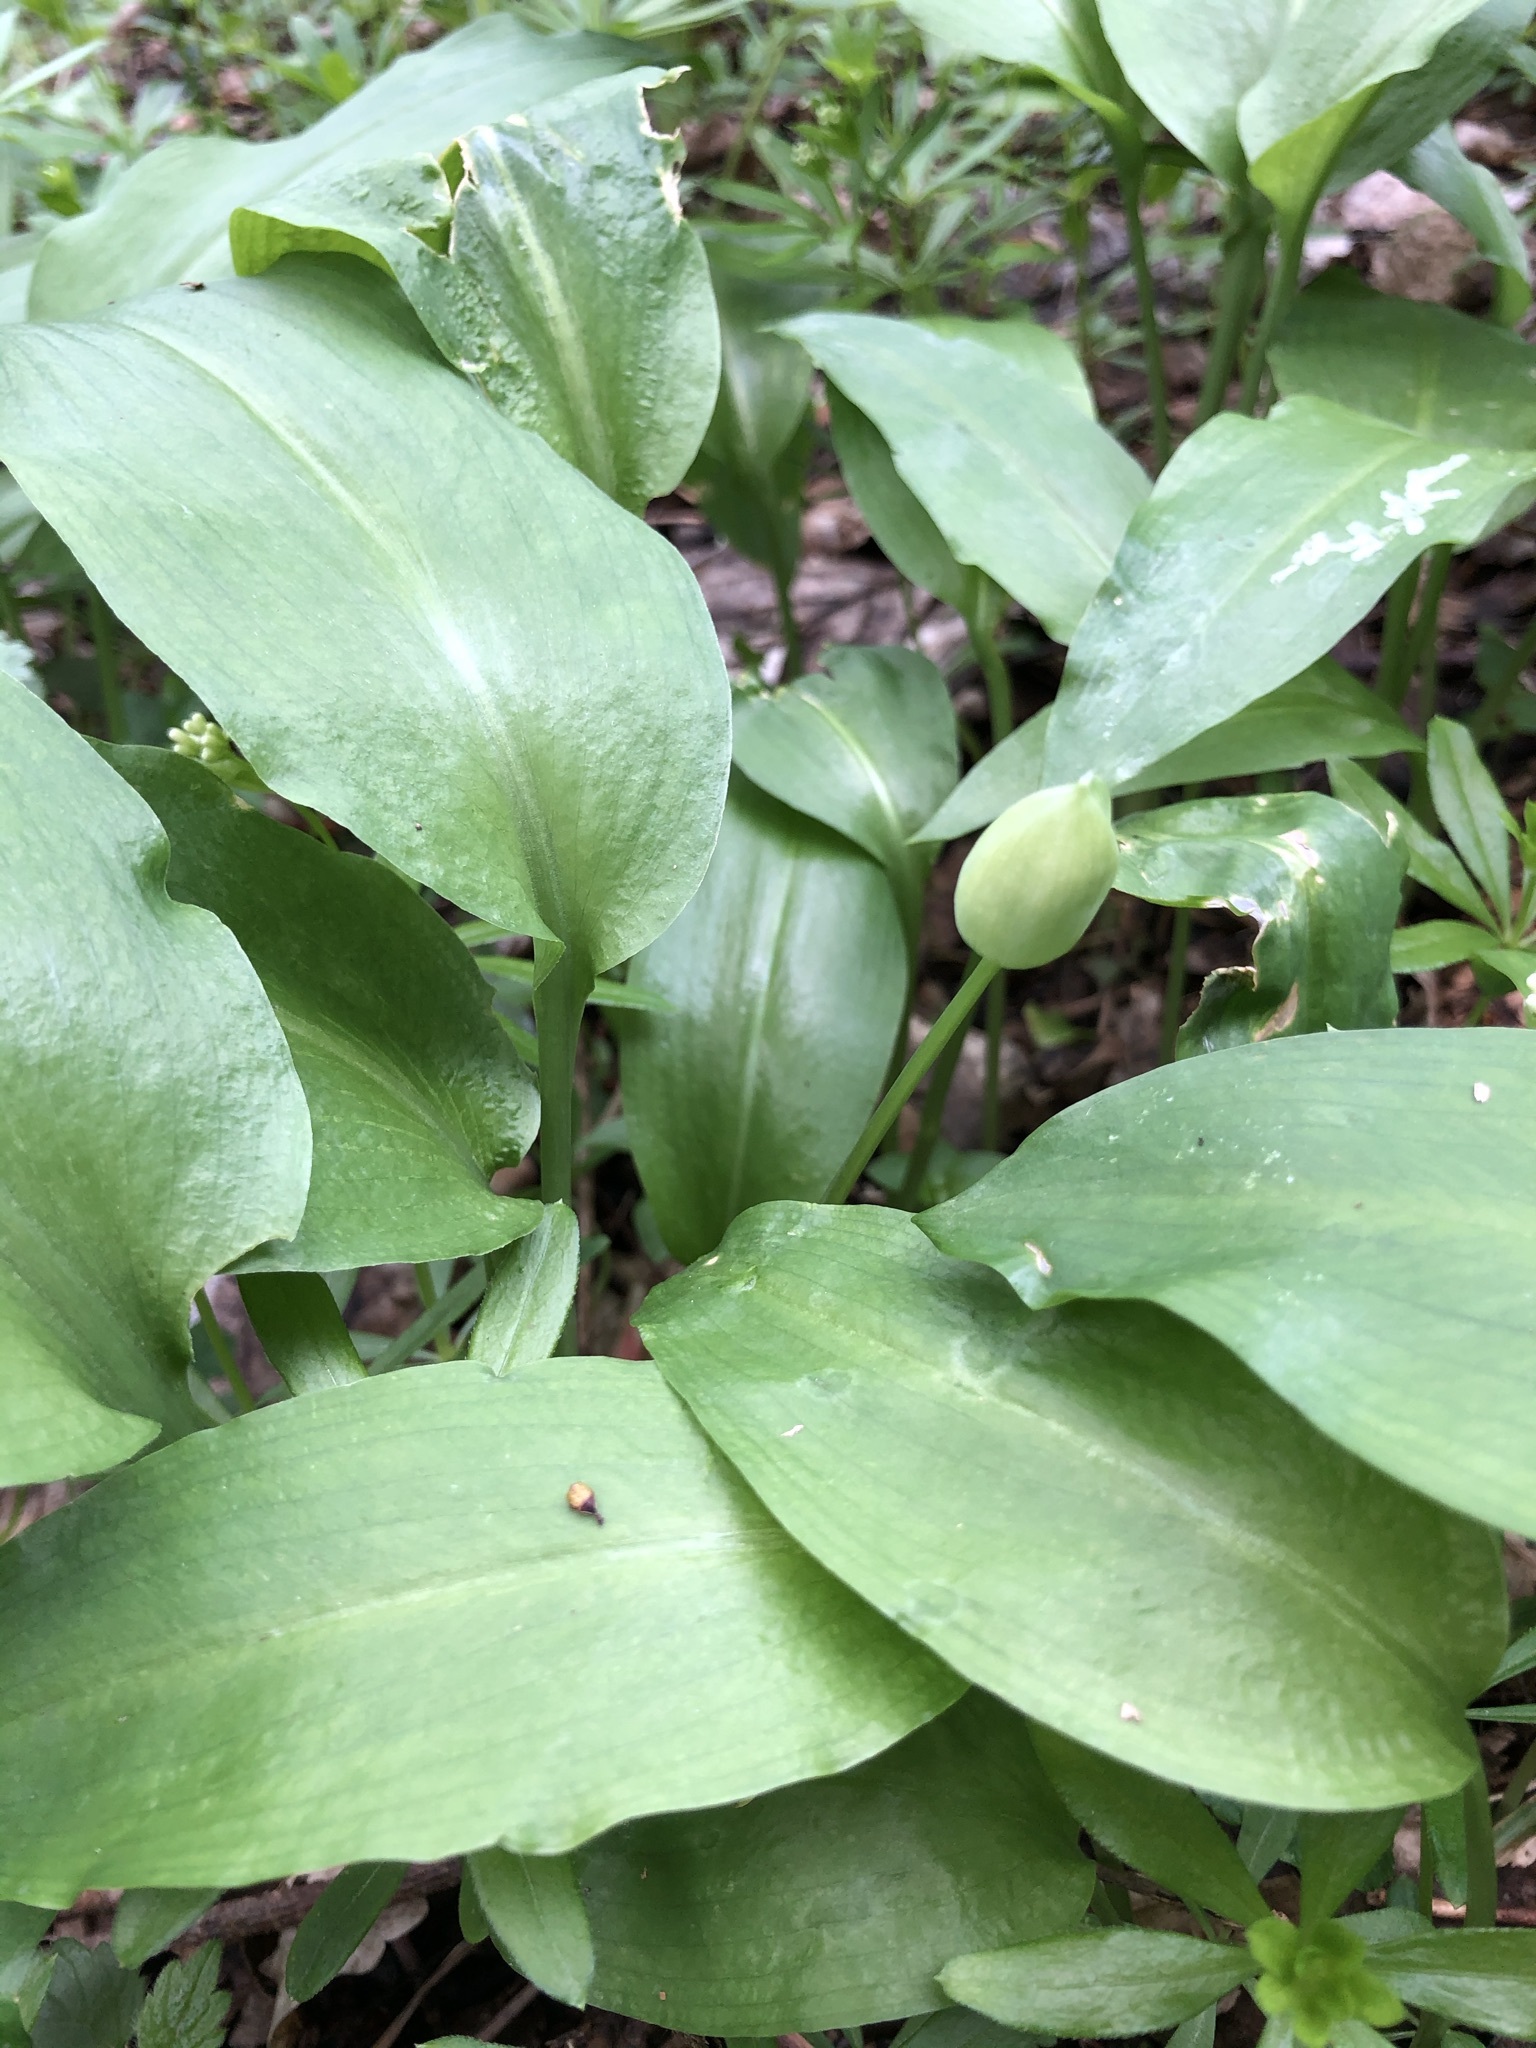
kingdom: Plantae
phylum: Tracheophyta
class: Liliopsida
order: Asparagales
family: Amaryllidaceae
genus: Allium
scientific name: Allium ursinum
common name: Ramsons
